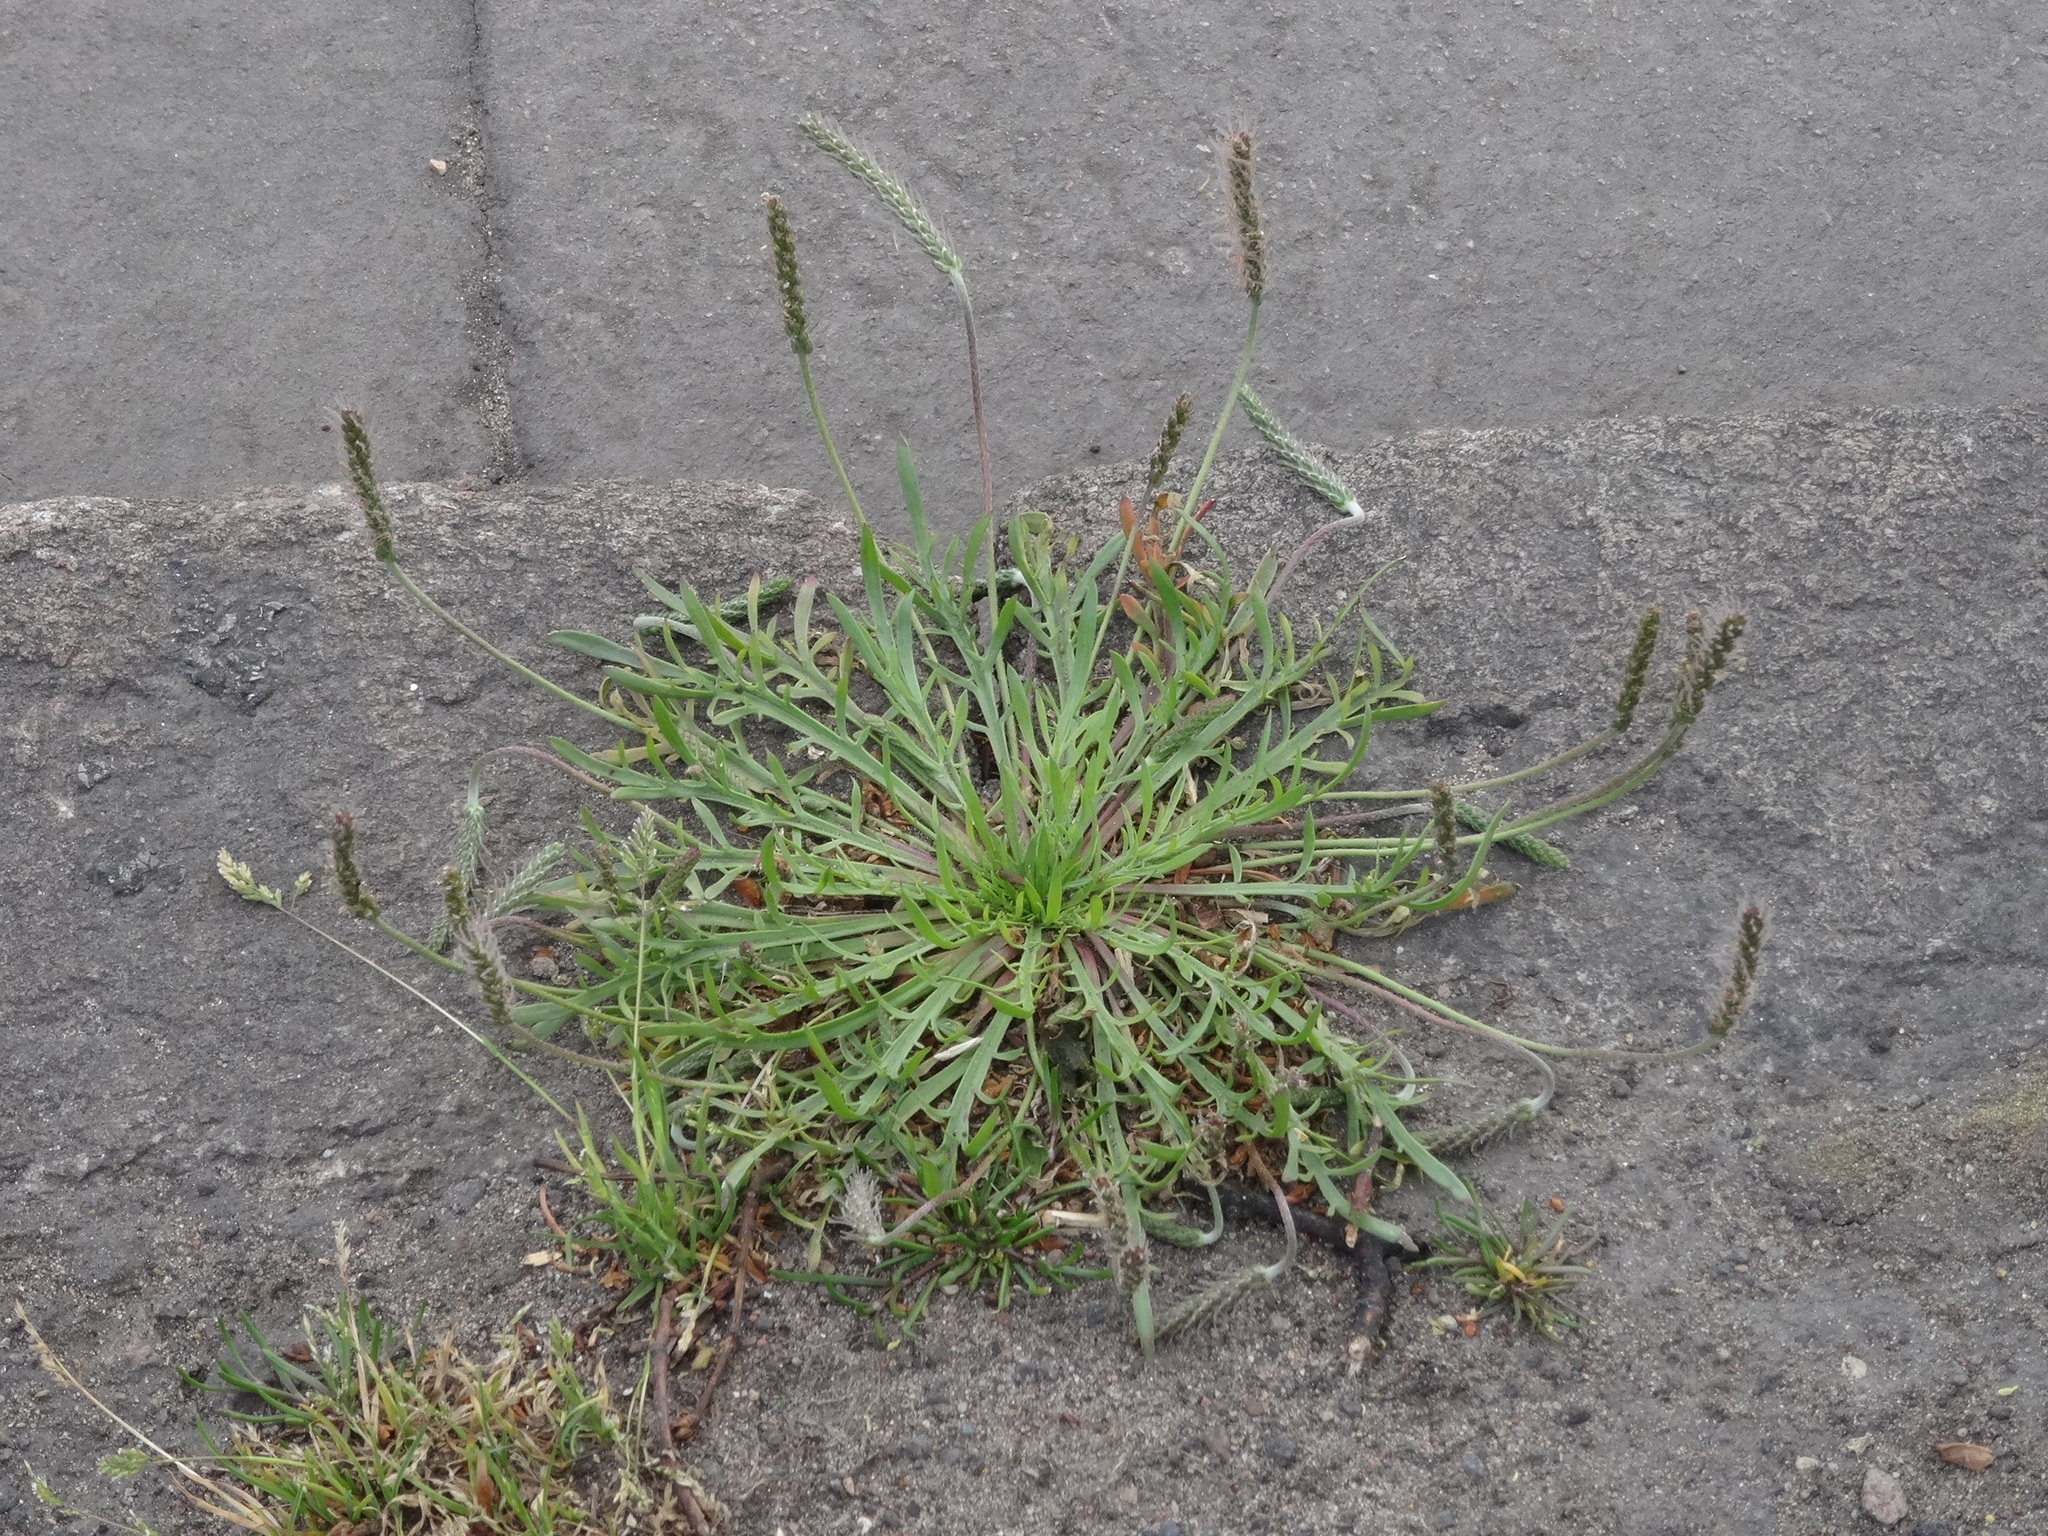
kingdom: Plantae
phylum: Tracheophyta
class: Magnoliopsida
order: Lamiales
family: Plantaginaceae
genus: Plantago
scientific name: Plantago coronopus
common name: Buck's-horn plantain
